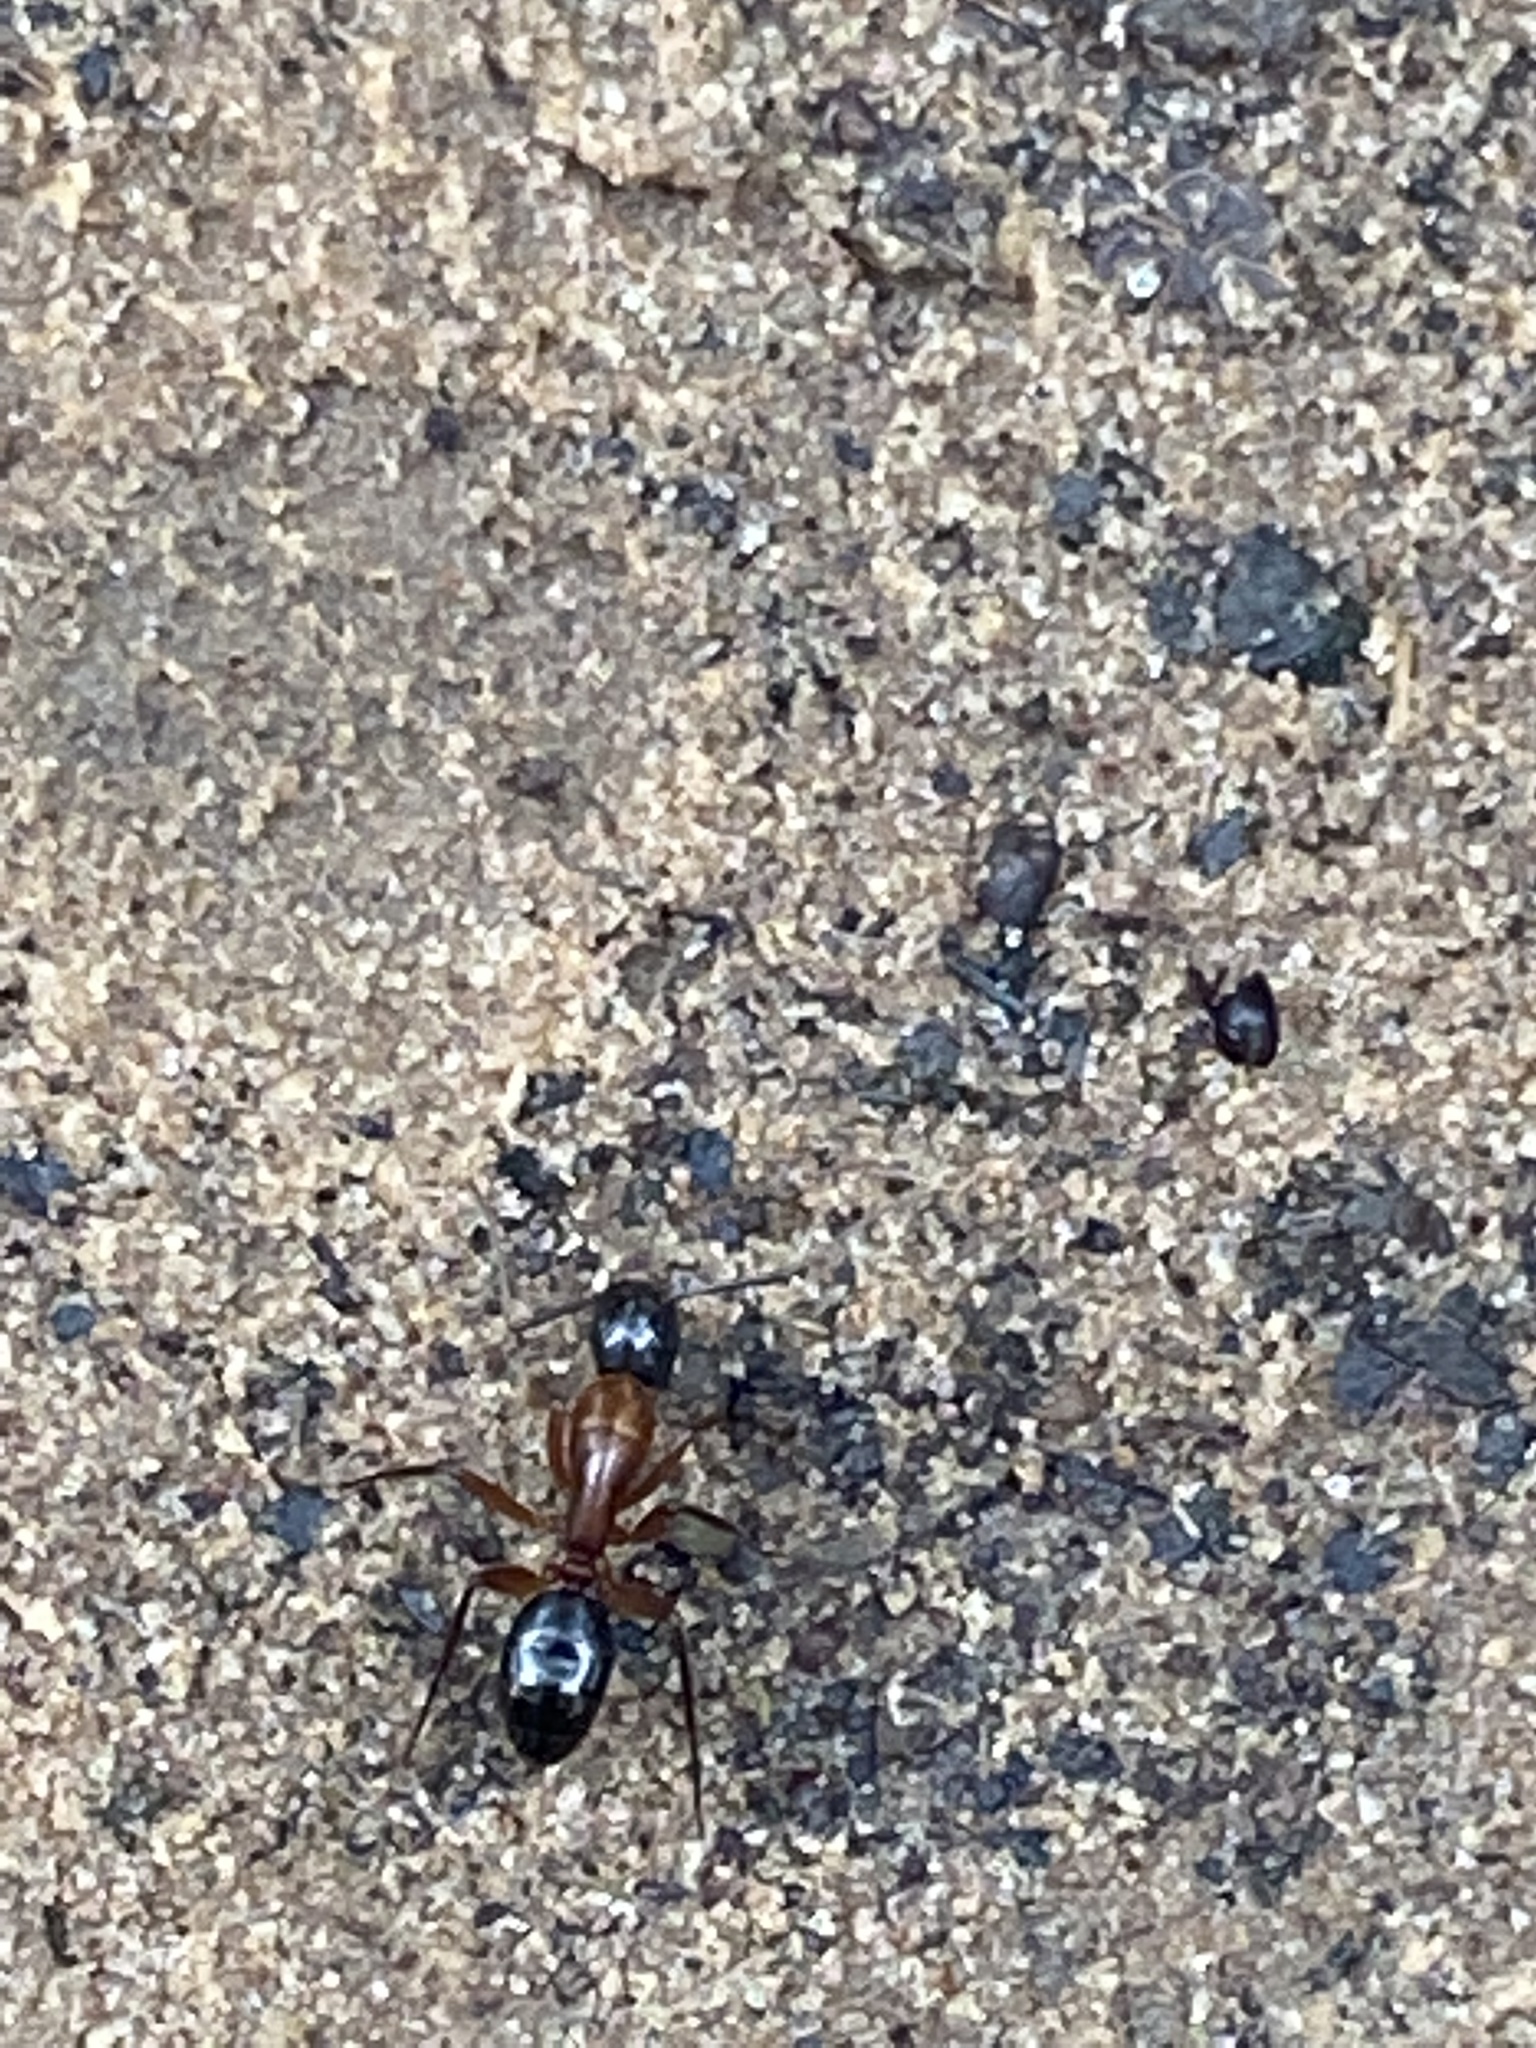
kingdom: Animalia
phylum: Arthropoda
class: Insecta
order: Hymenoptera
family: Formicidae
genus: Camponotus
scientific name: Camponotus texanus
